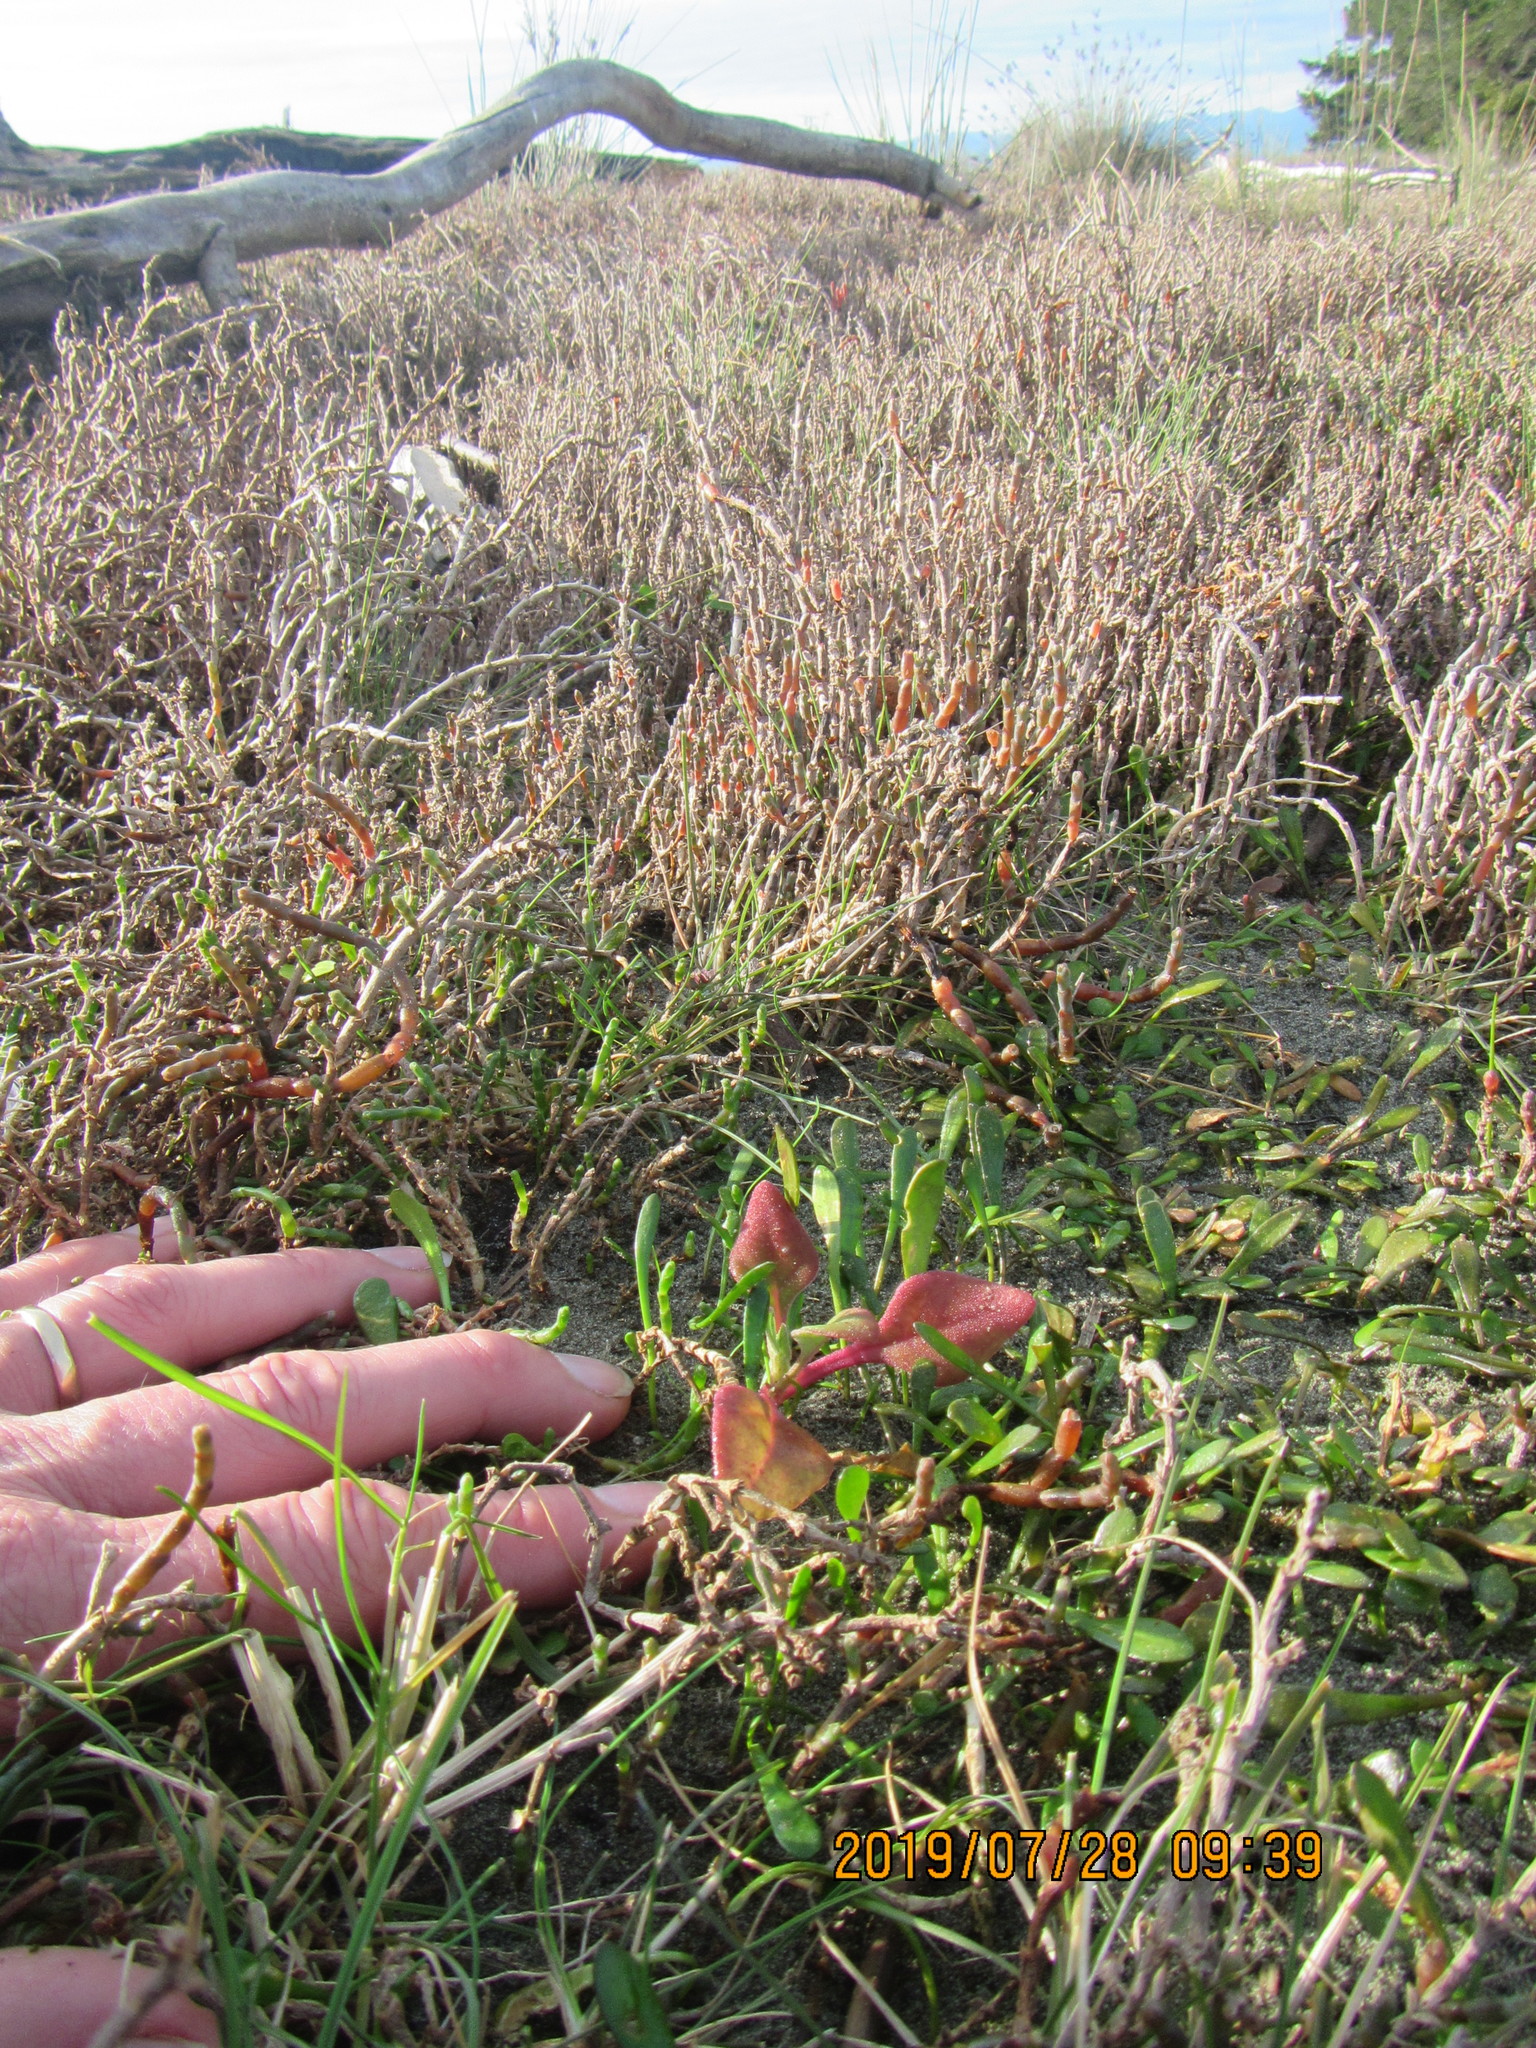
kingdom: Plantae
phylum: Tracheophyta
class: Magnoliopsida
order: Caryophyllales
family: Aizoaceae
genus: Tetragonia
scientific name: Tetragonia implexicoma
